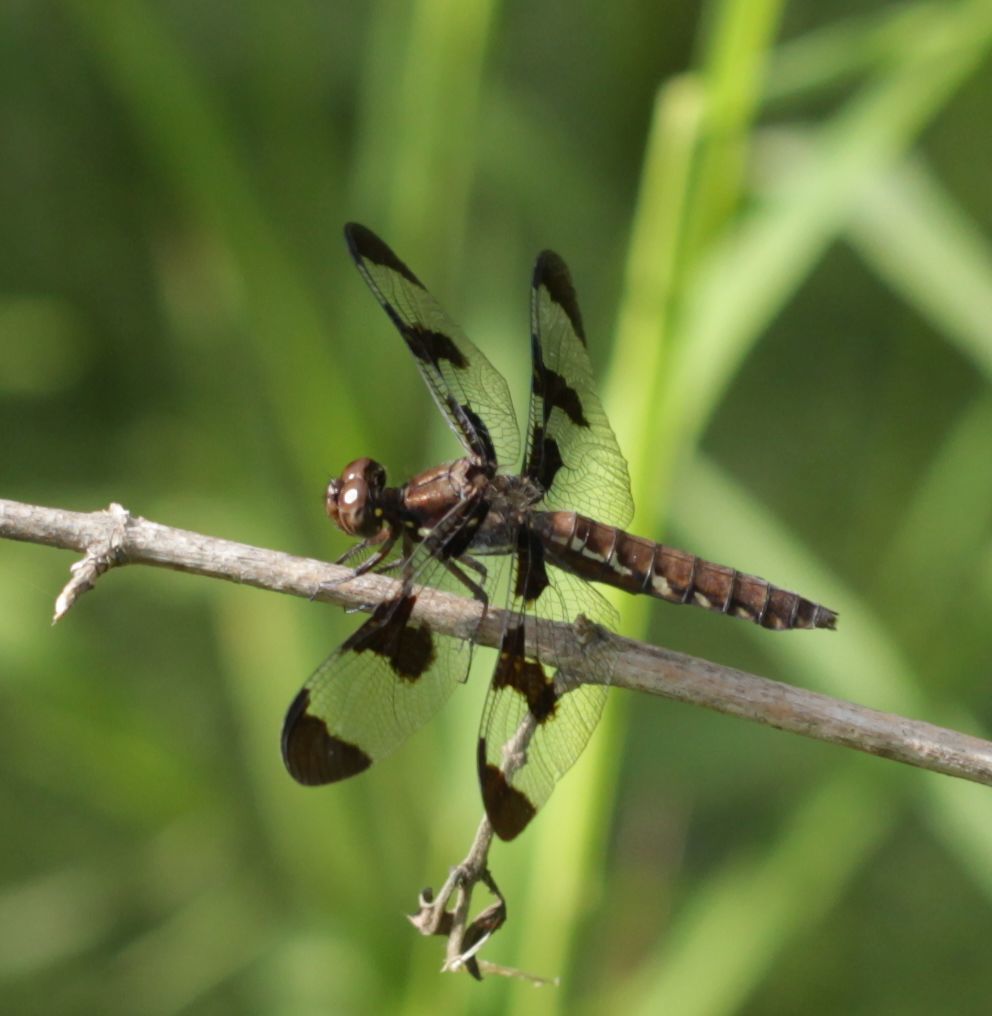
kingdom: Animalia
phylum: Arthropoda
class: Insecta
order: Odonata
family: Libellulidae
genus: Plathemis
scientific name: Plathemis lydia
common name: Common whitetail
